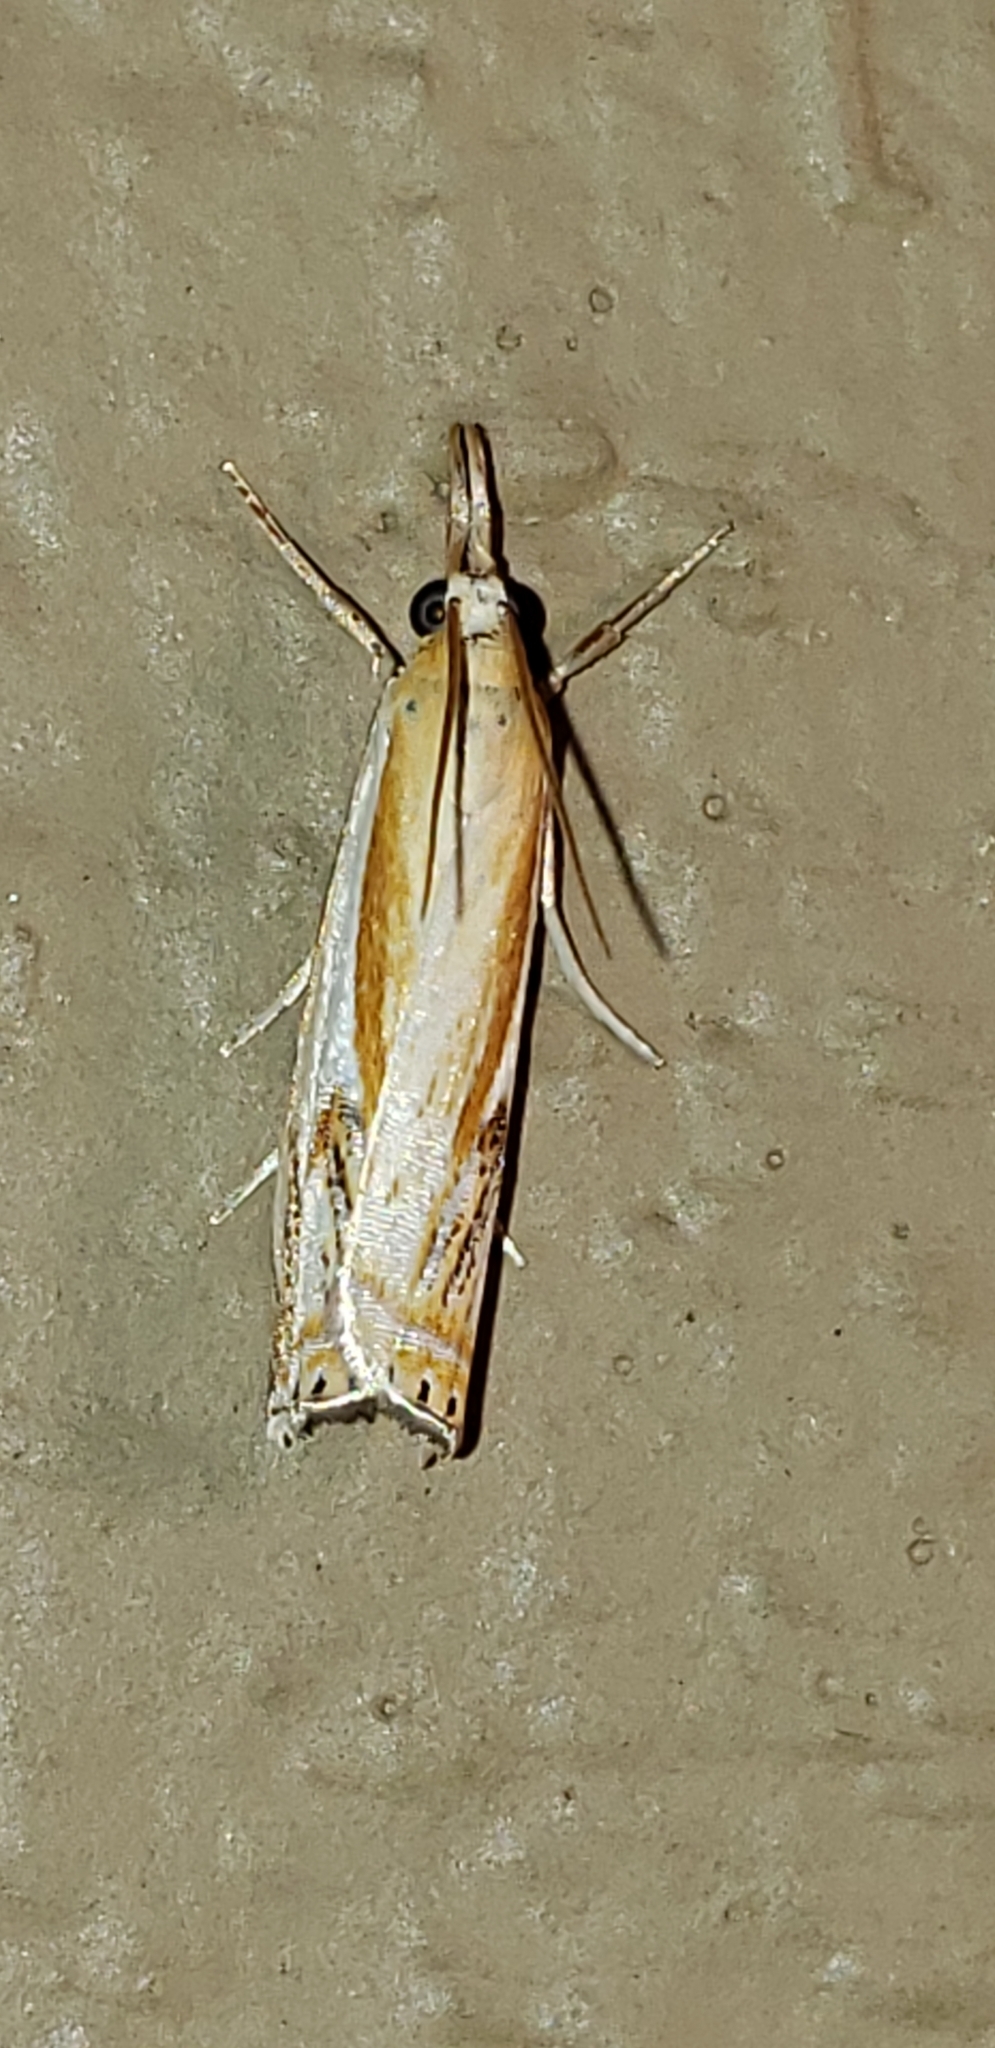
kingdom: Animalia
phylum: Arthropoda
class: Insecta
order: Lepidoptera
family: Crambidae
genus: Crambus
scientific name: Crambus agitatellus
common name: Double-banded grass-veneer
